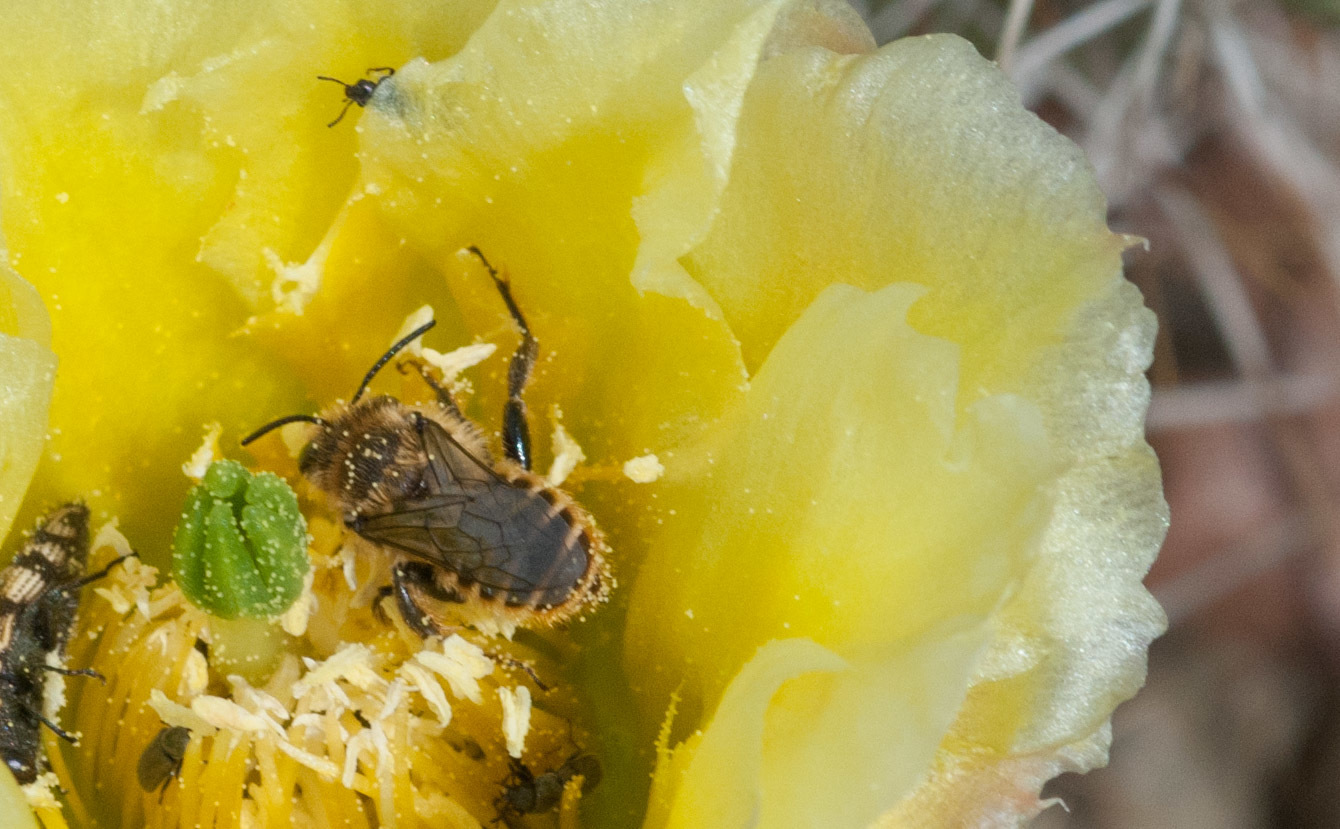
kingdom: Animalia
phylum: Arthropoda
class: Insecta
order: Hymenoptera
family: Megachilidae
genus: Lithurgopsis
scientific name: Lithurgopsis apicalis
